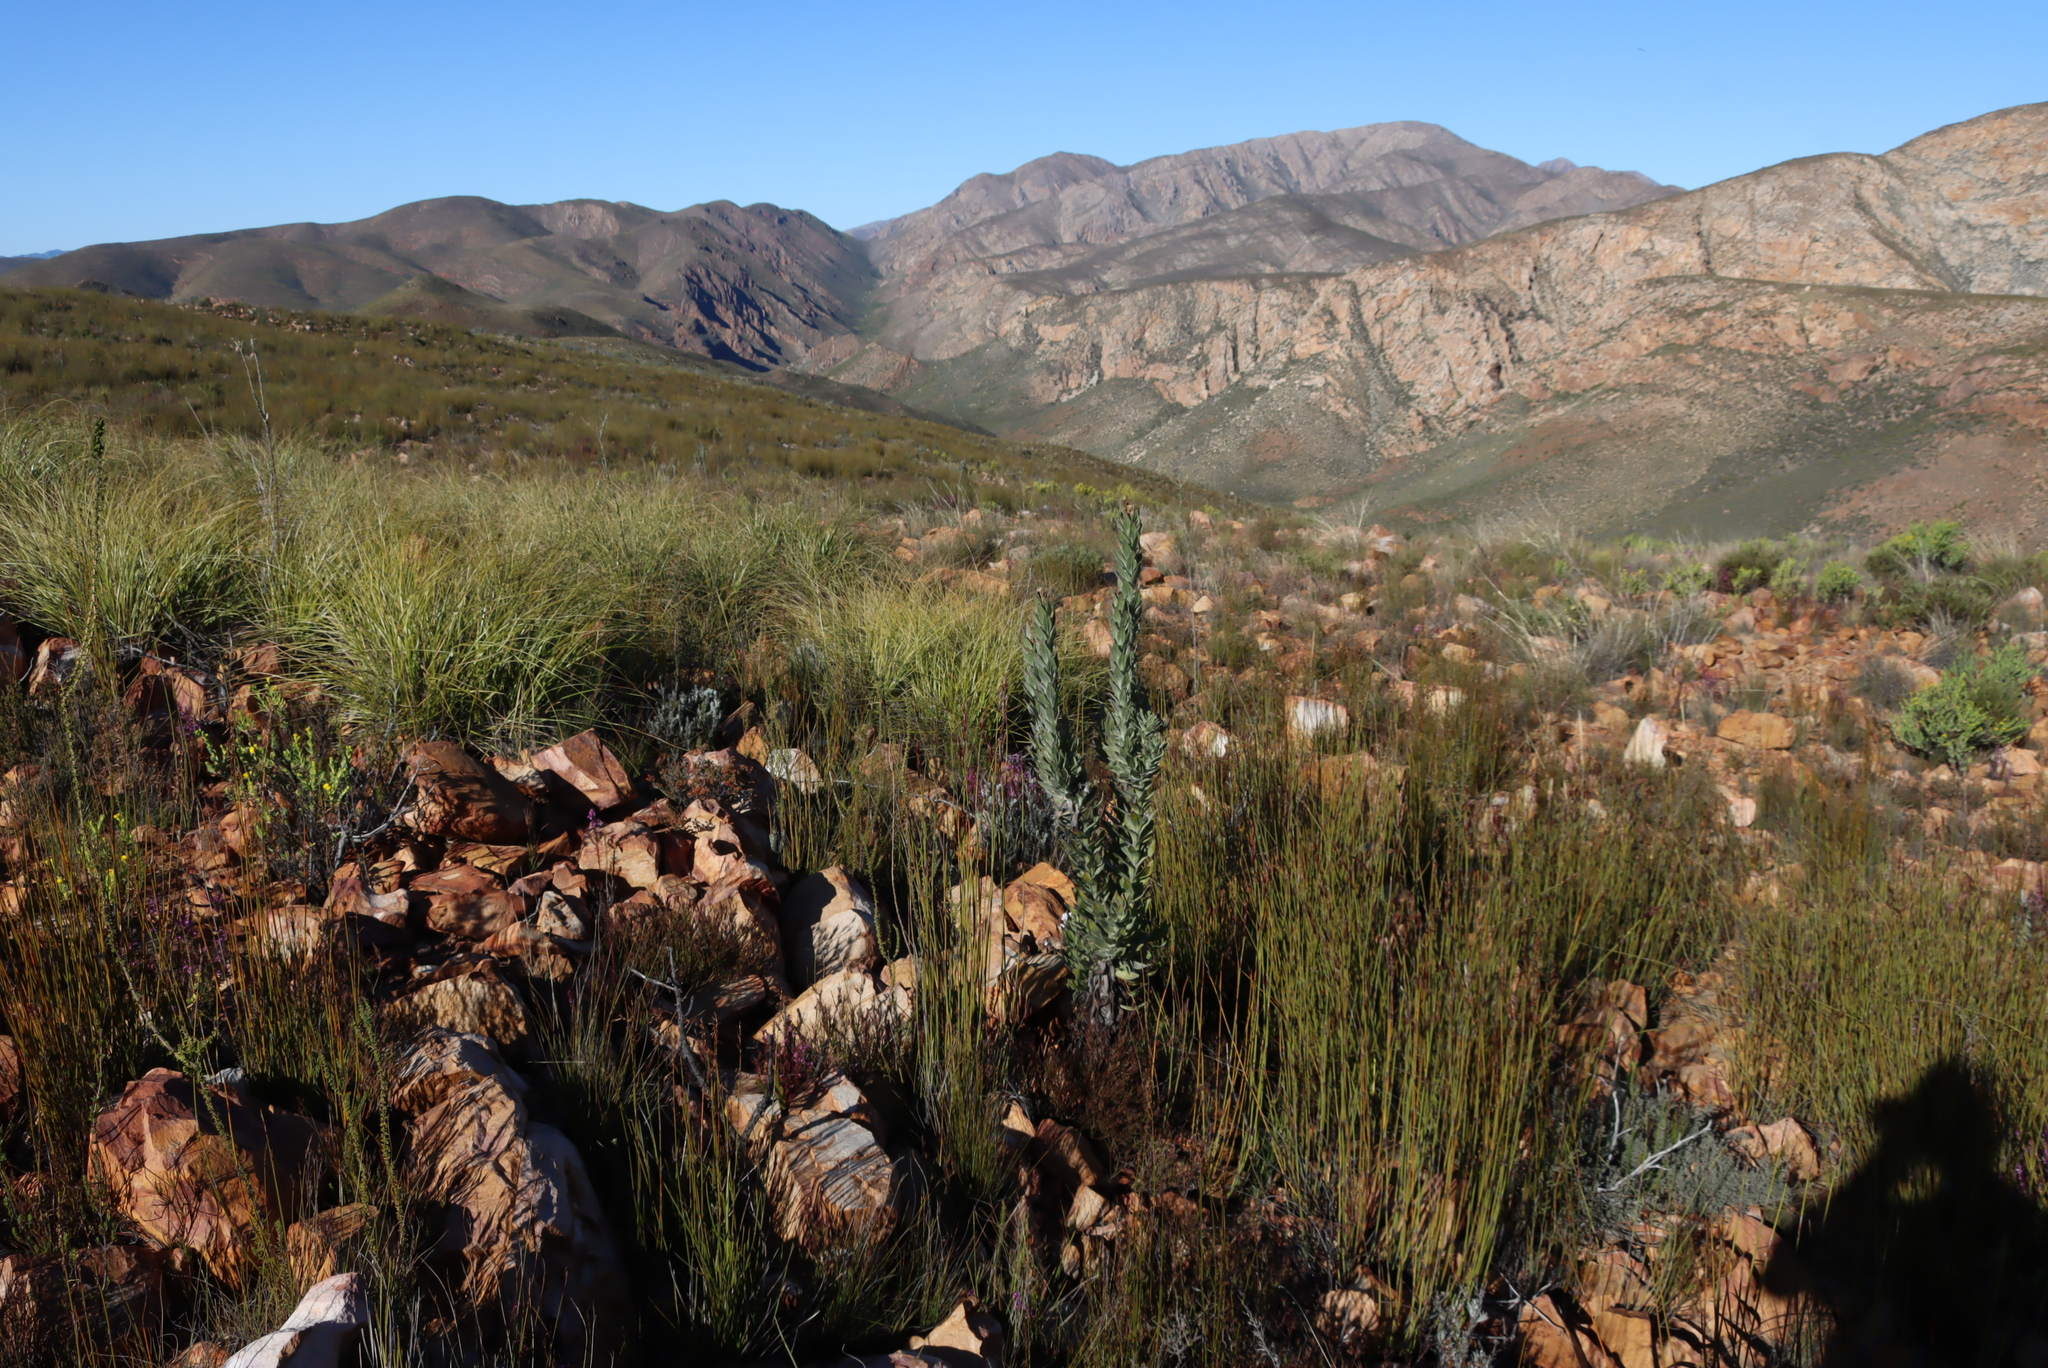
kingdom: Plantae
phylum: Tracheophyta
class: Magnoliopsida
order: Asterales
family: Asteraceae
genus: Syncarpha
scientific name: Syncarpha milleflora
